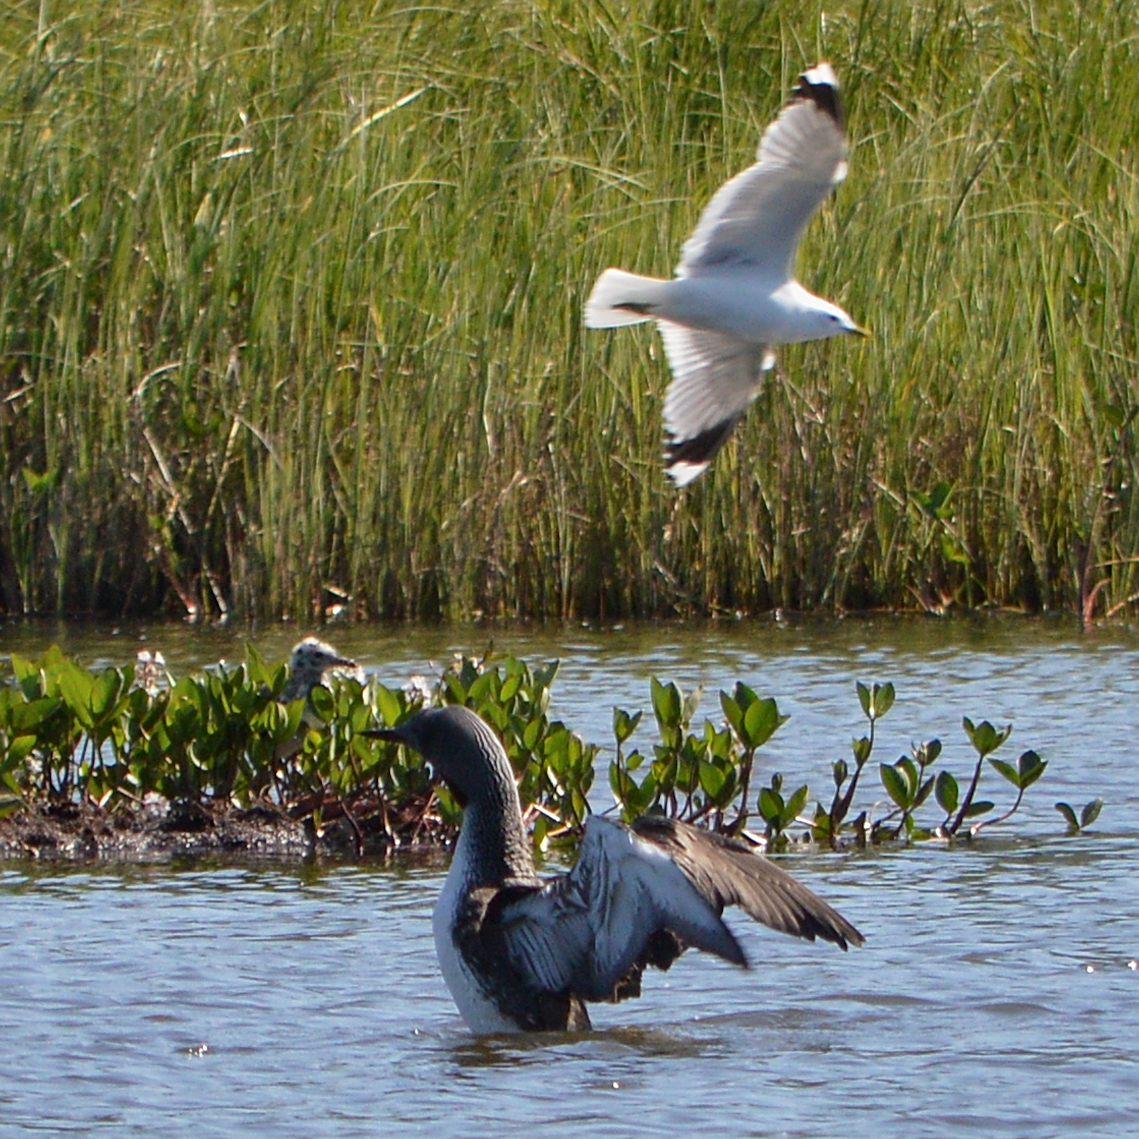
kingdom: Animalia
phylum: Chordata
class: Aves
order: Charadriiformes
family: Laridae
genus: Larus
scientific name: Larus canus
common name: Mew gull
